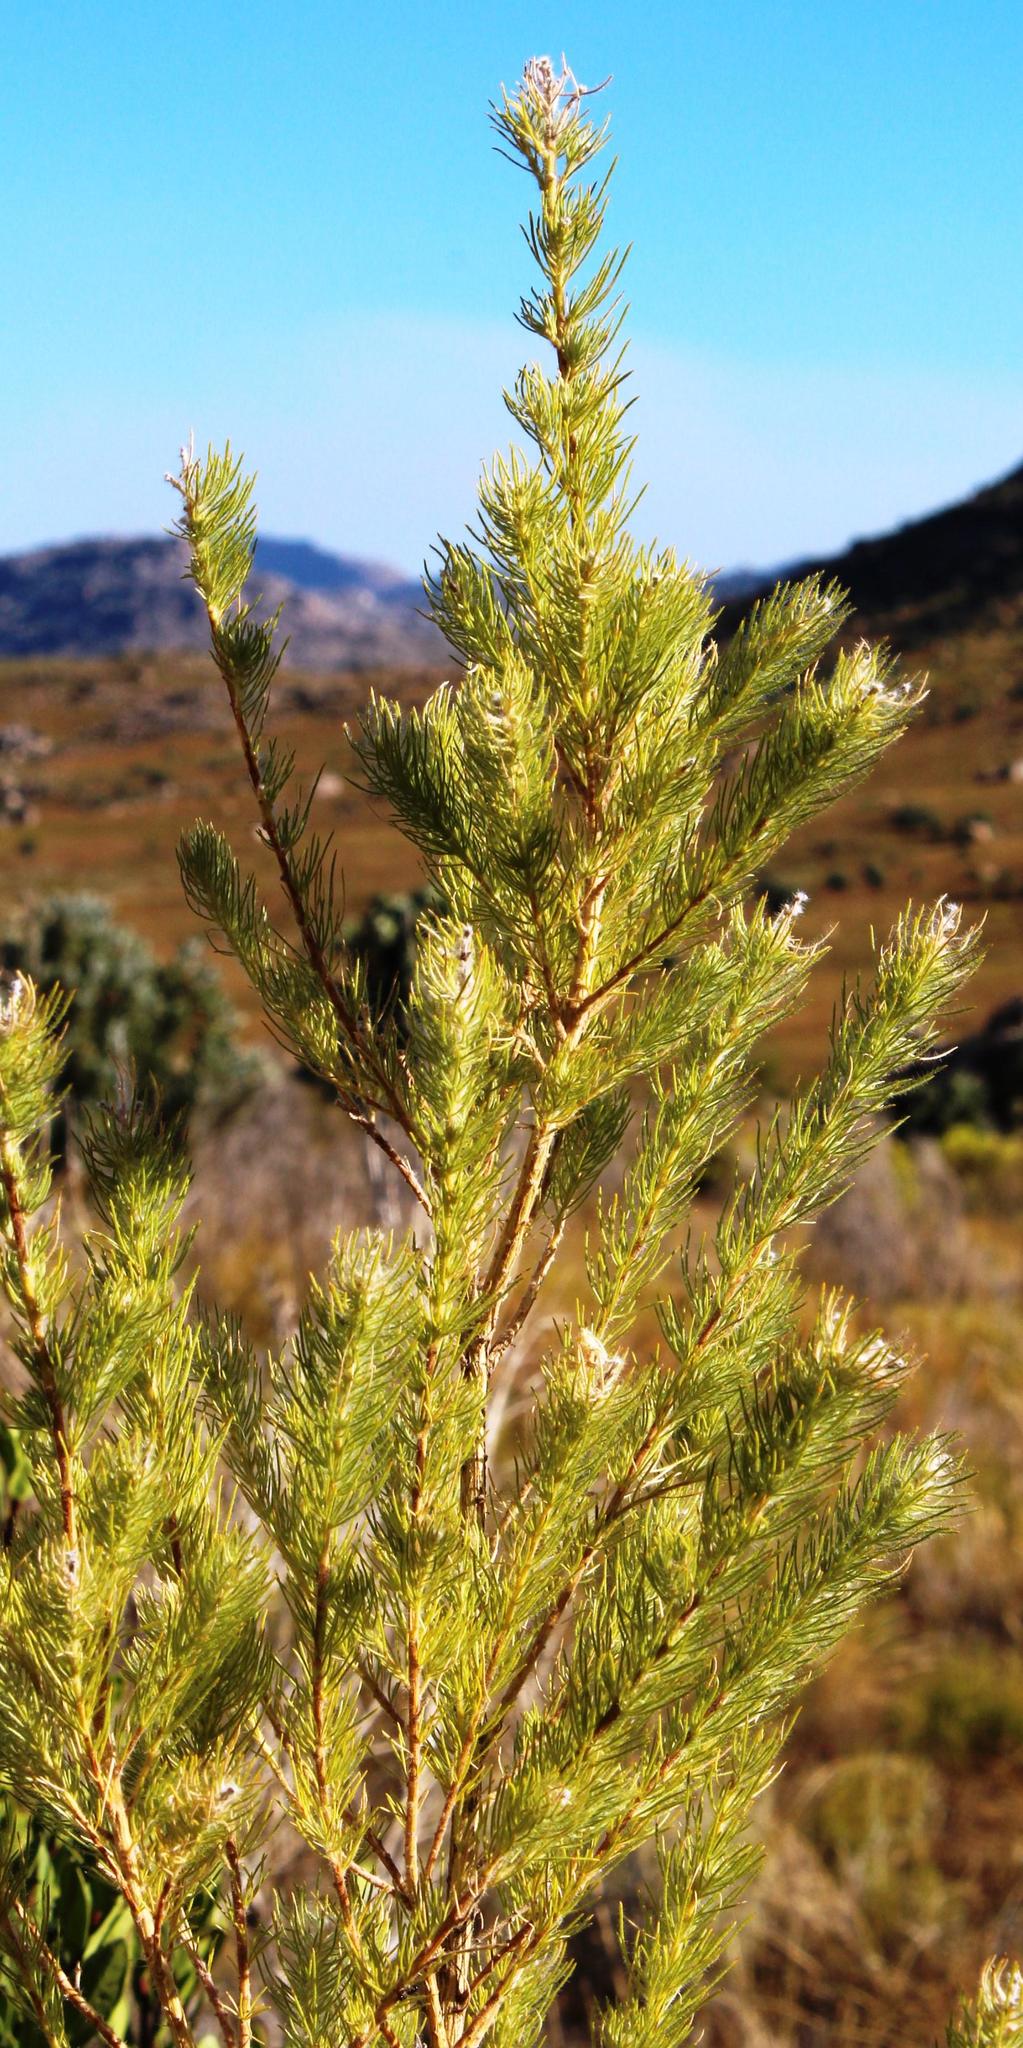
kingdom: Plantae
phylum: Tracheophyta
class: Magnoliopsida
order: Fabales
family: Fabaceae
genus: Aspalathus
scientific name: Aspalathus decora
